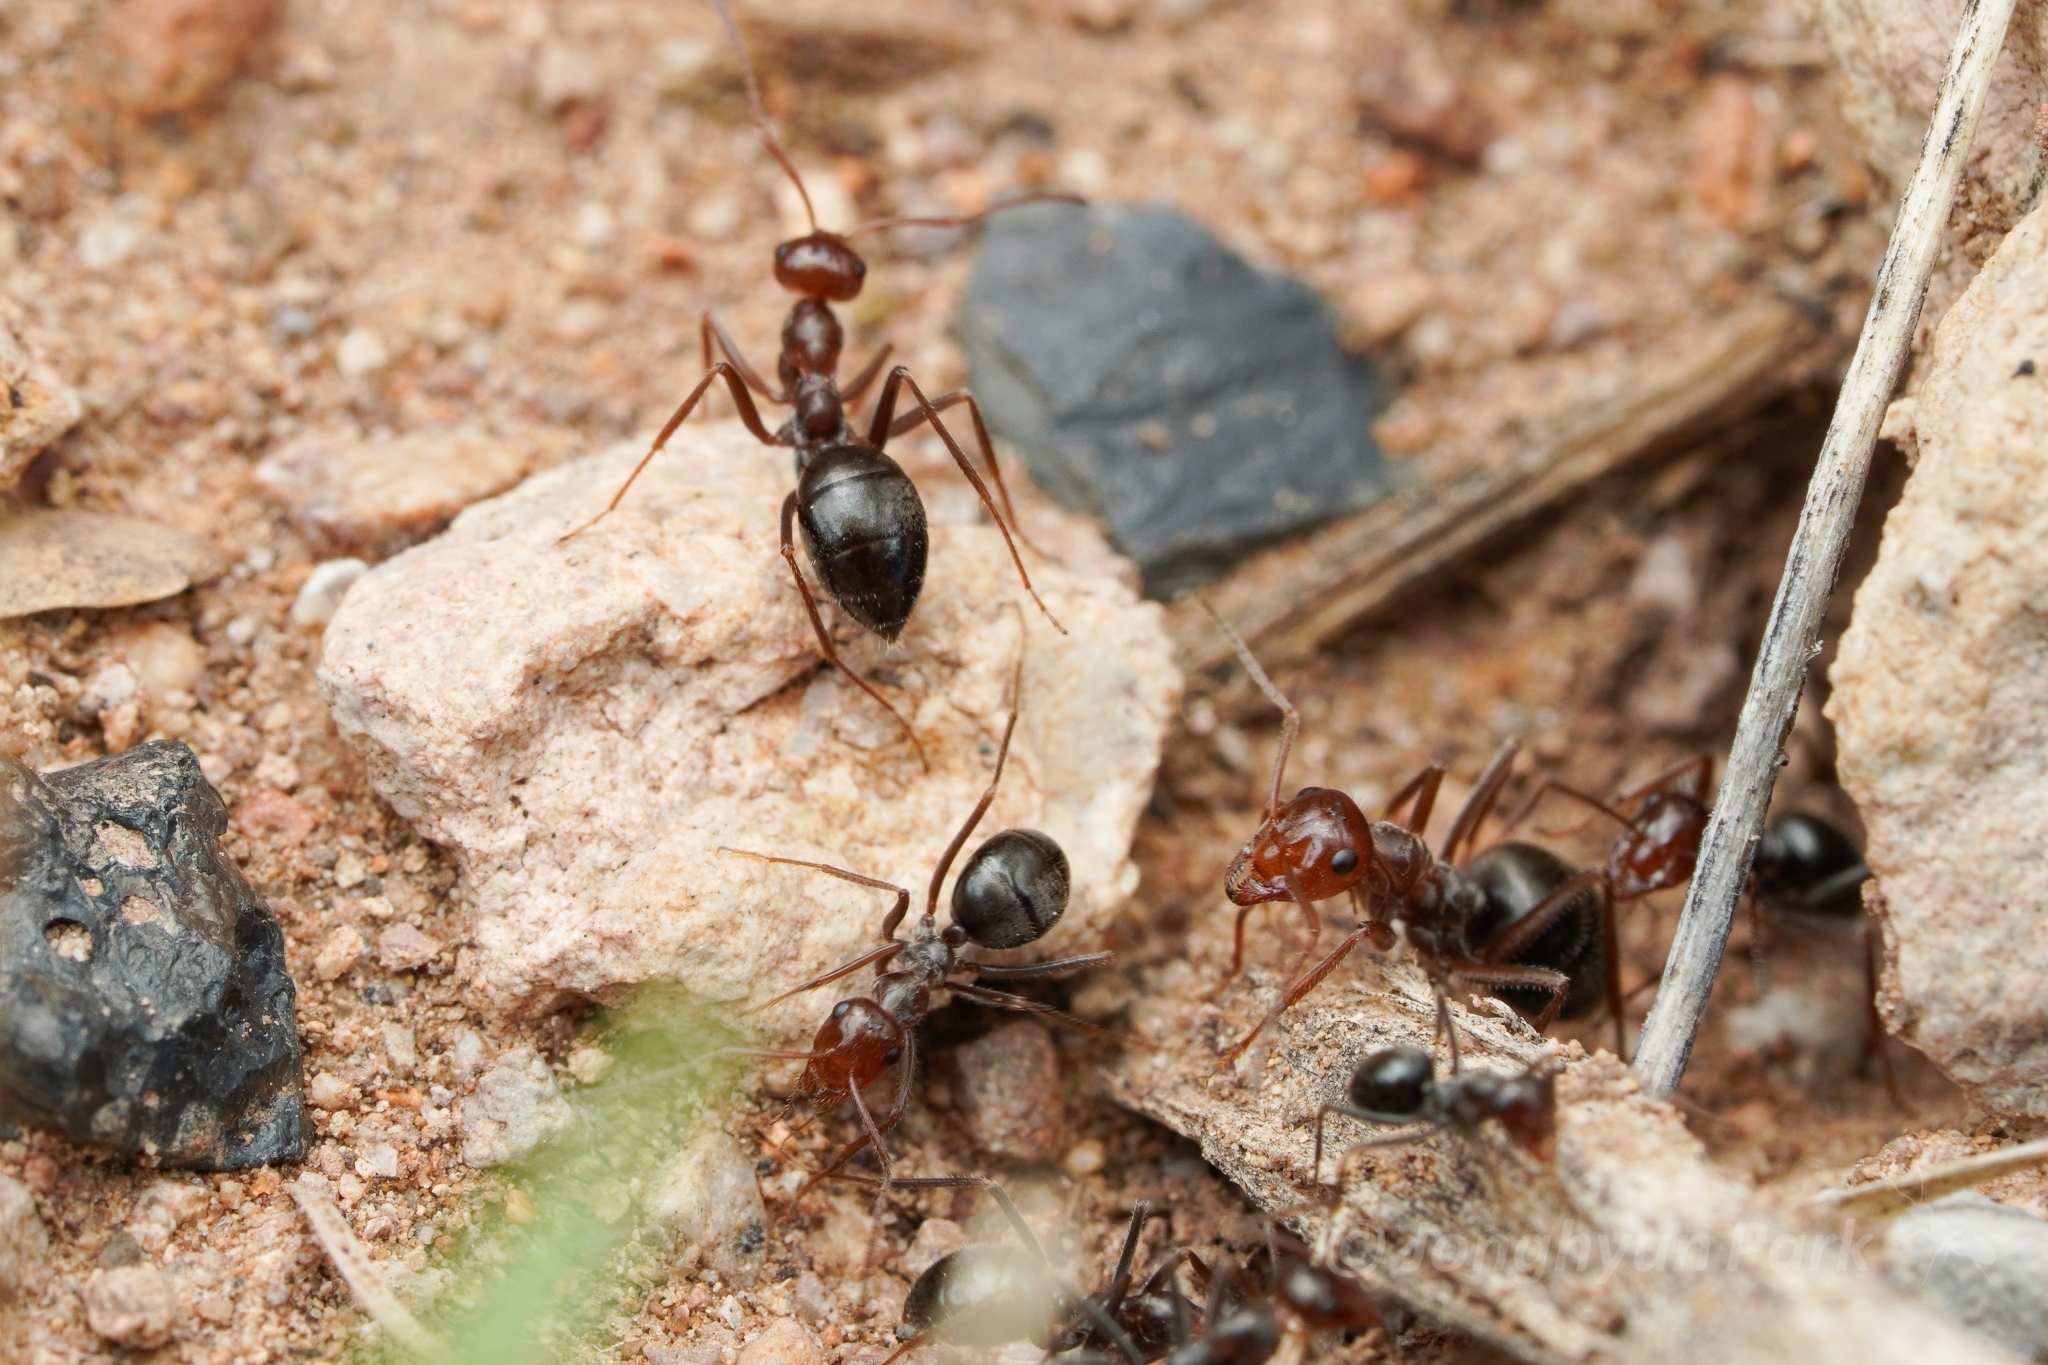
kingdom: Animalia
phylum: Arthropoda
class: Insecta
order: Hymenoptera
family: Formicidae
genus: Myrmecocystus
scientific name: Myrmecocystus mimicus
